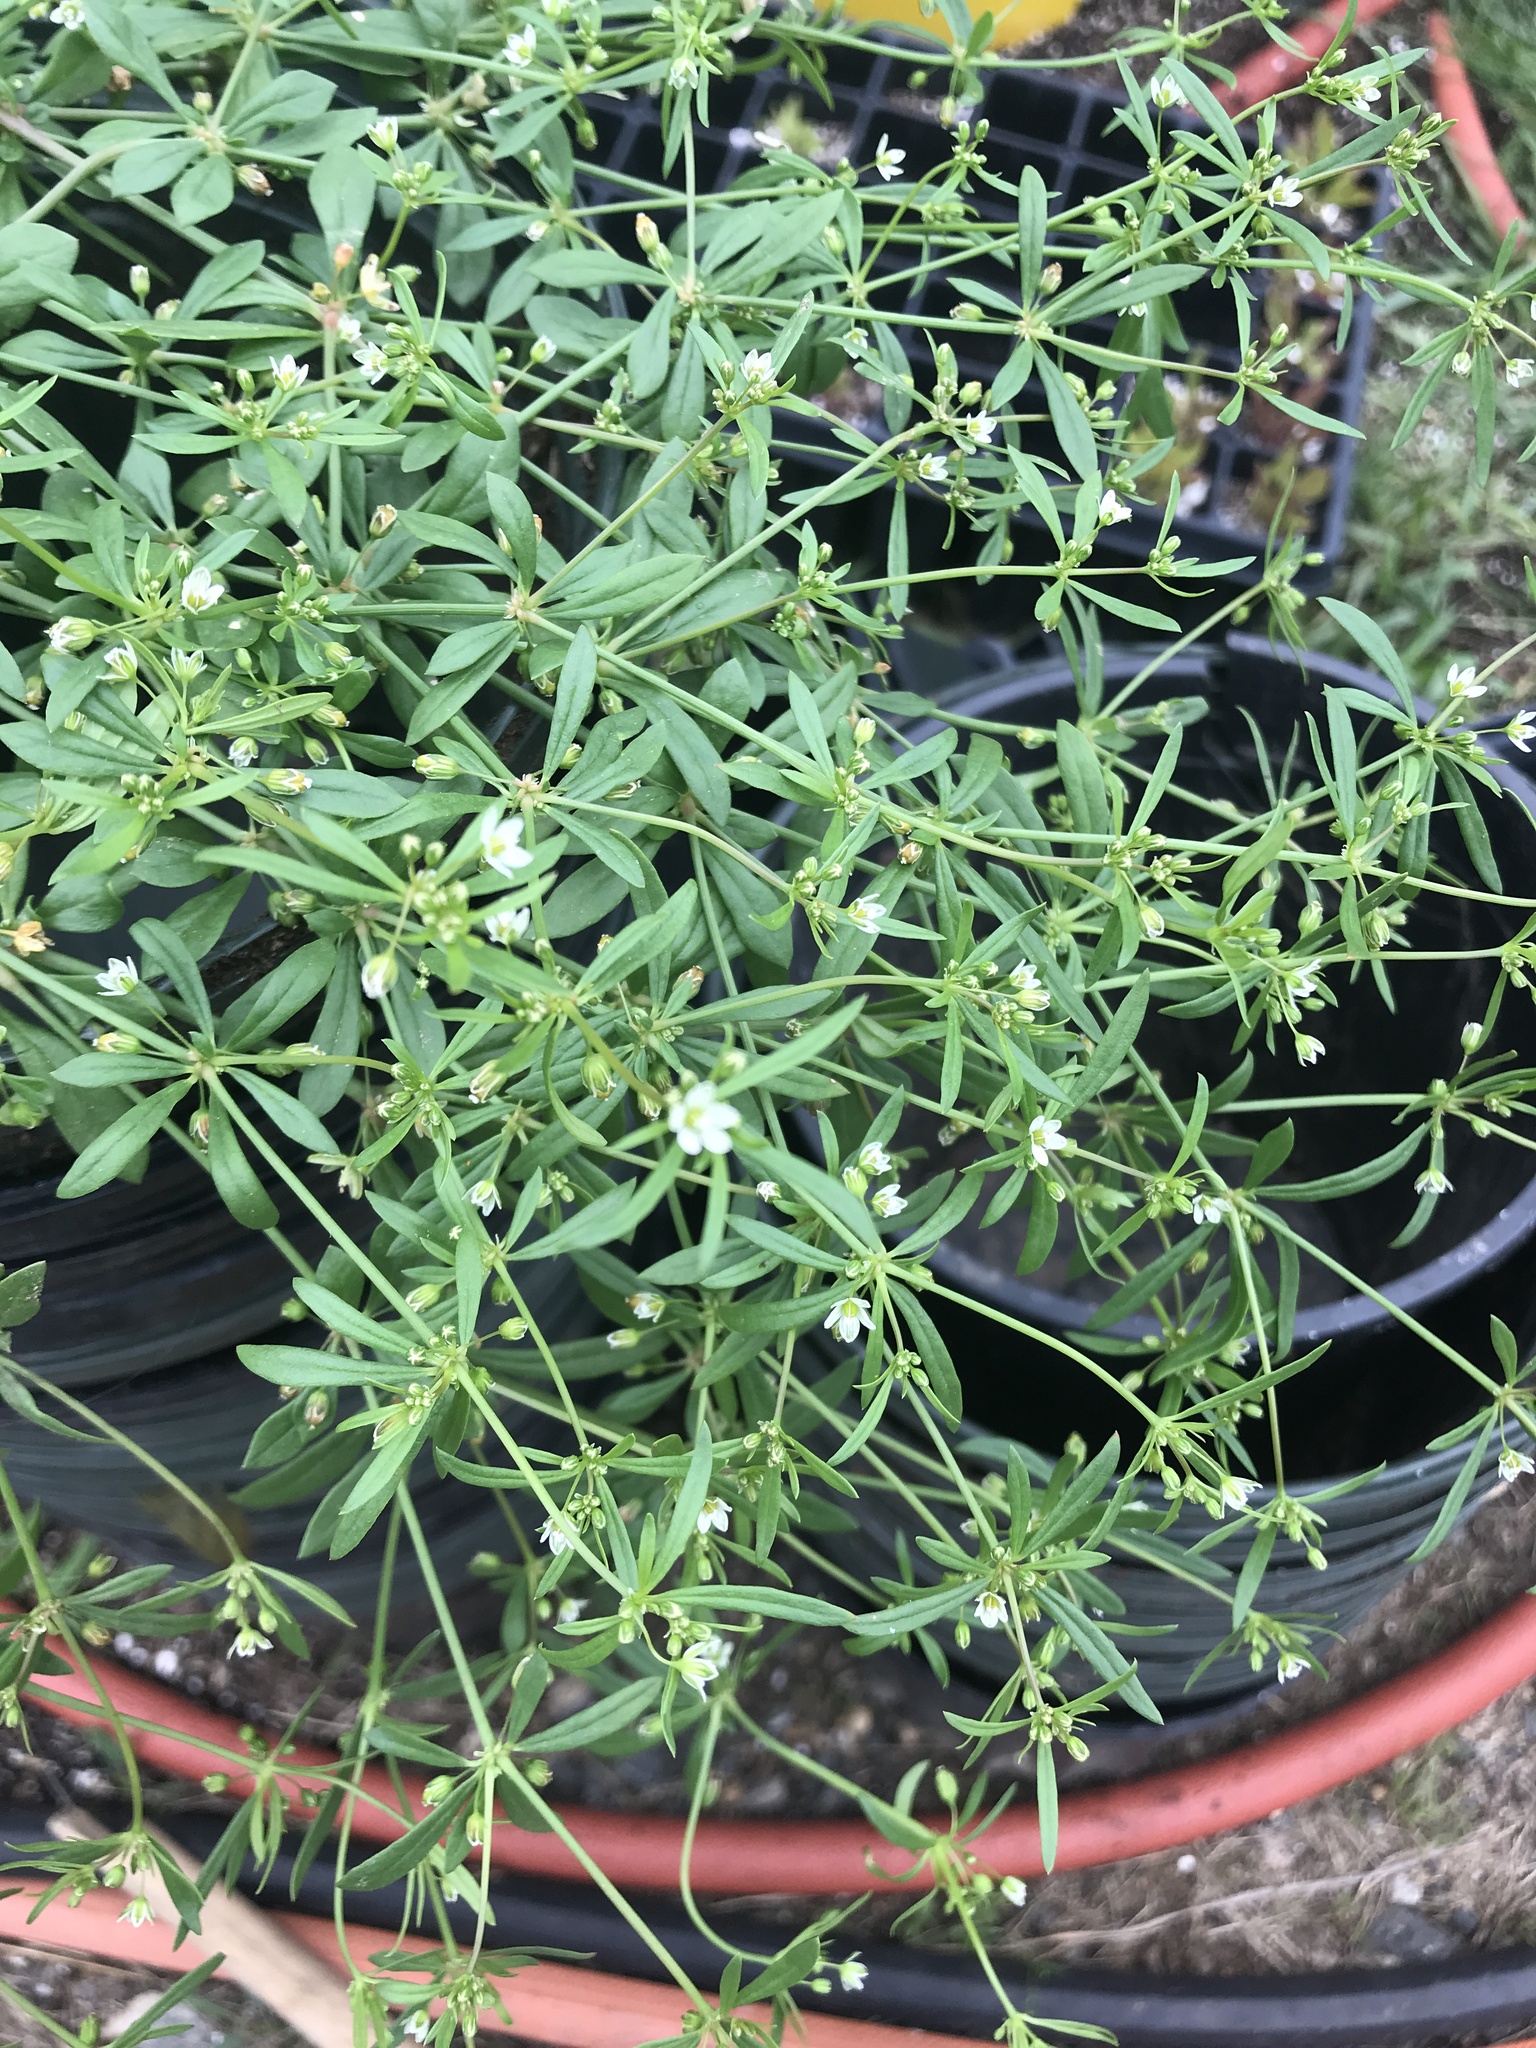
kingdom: Plantae
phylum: Tracheophyta
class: Magnoliopsida
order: Caryophyllales
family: Molluginaceae
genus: Mollugo
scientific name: Mollugo verticillata
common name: Green carpetweed
